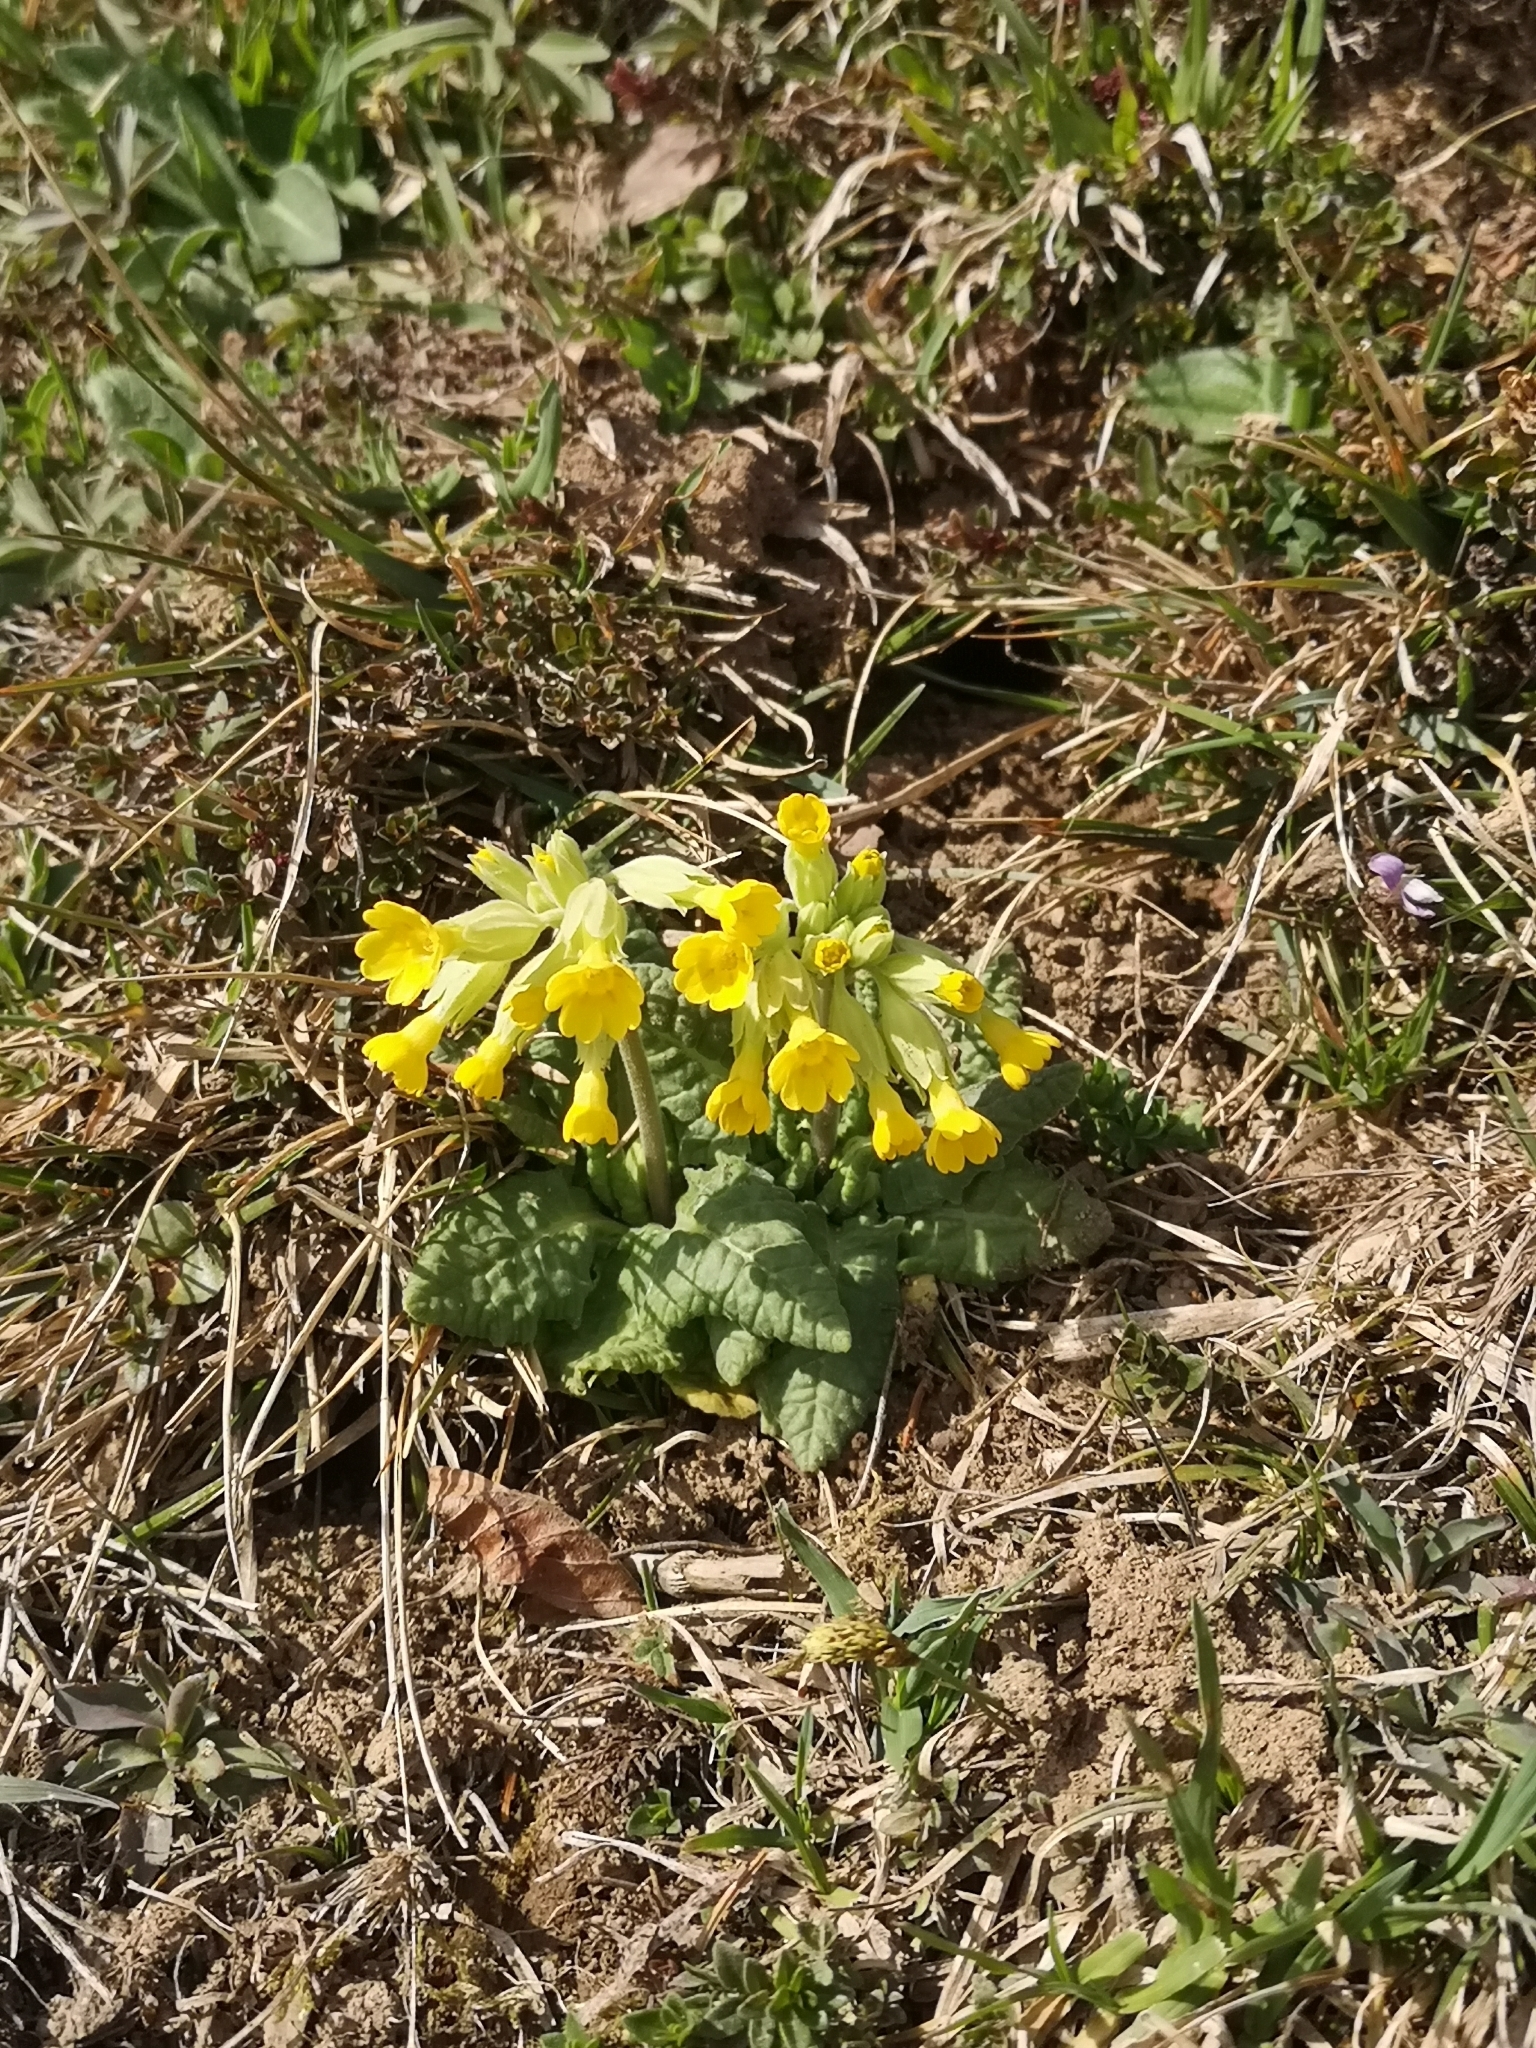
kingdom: Plantae
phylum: Tracheophyta
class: Magnoliopsida
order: Ericales
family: Primulaceae
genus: Primula
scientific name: Primula veris
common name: Cowslip
